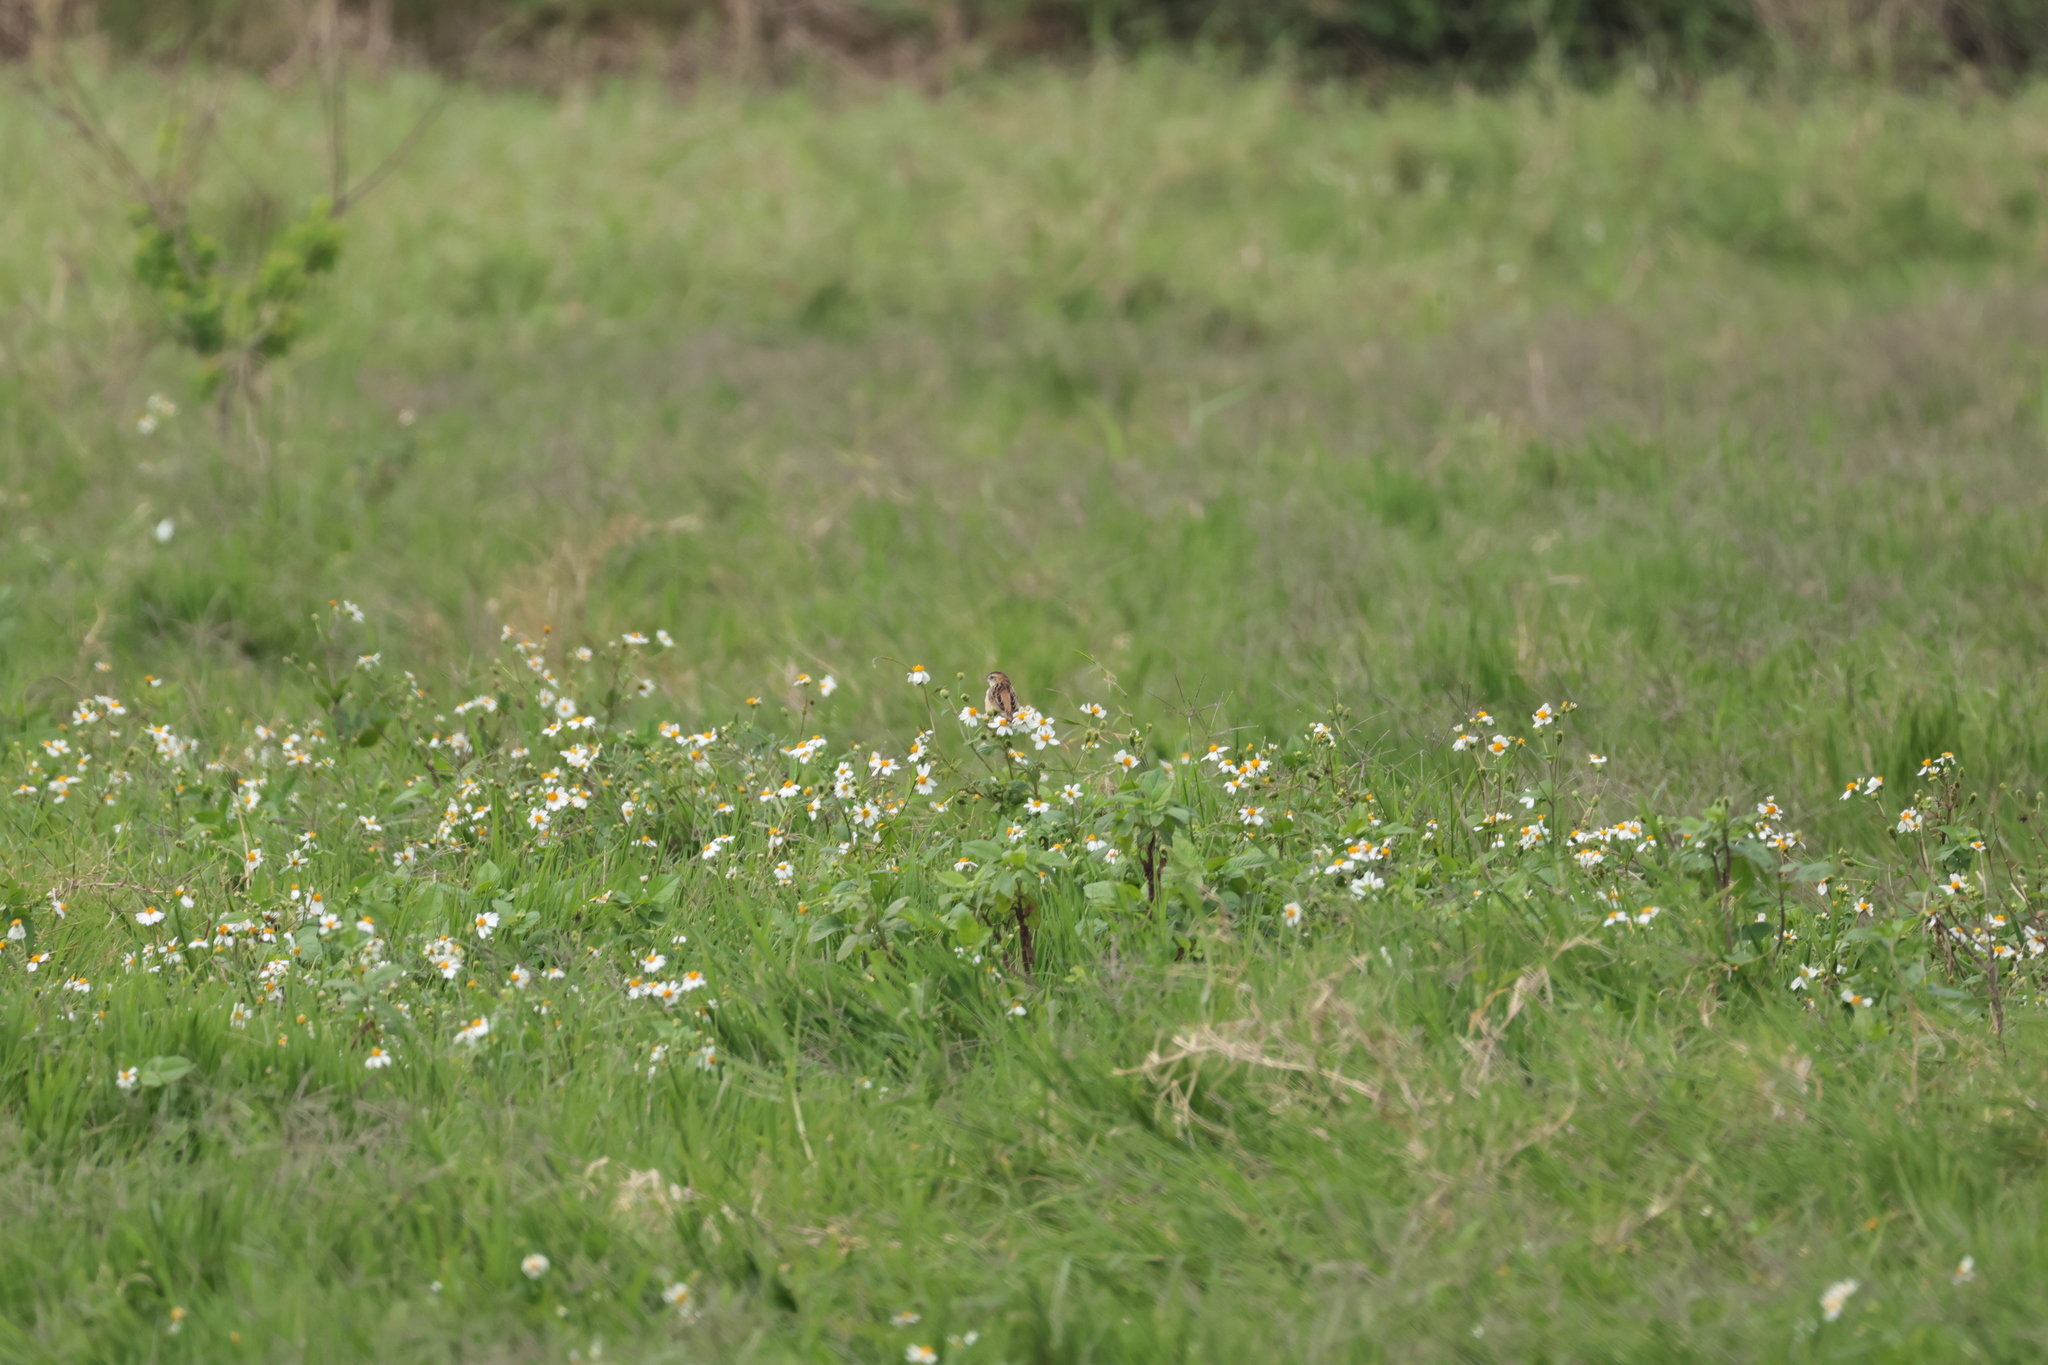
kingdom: Animalia
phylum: Chordata
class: Aves
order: Passeriformes
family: Cisticolidae
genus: Cisticola
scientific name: Cisticola juncidis
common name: Zitting cisticola
